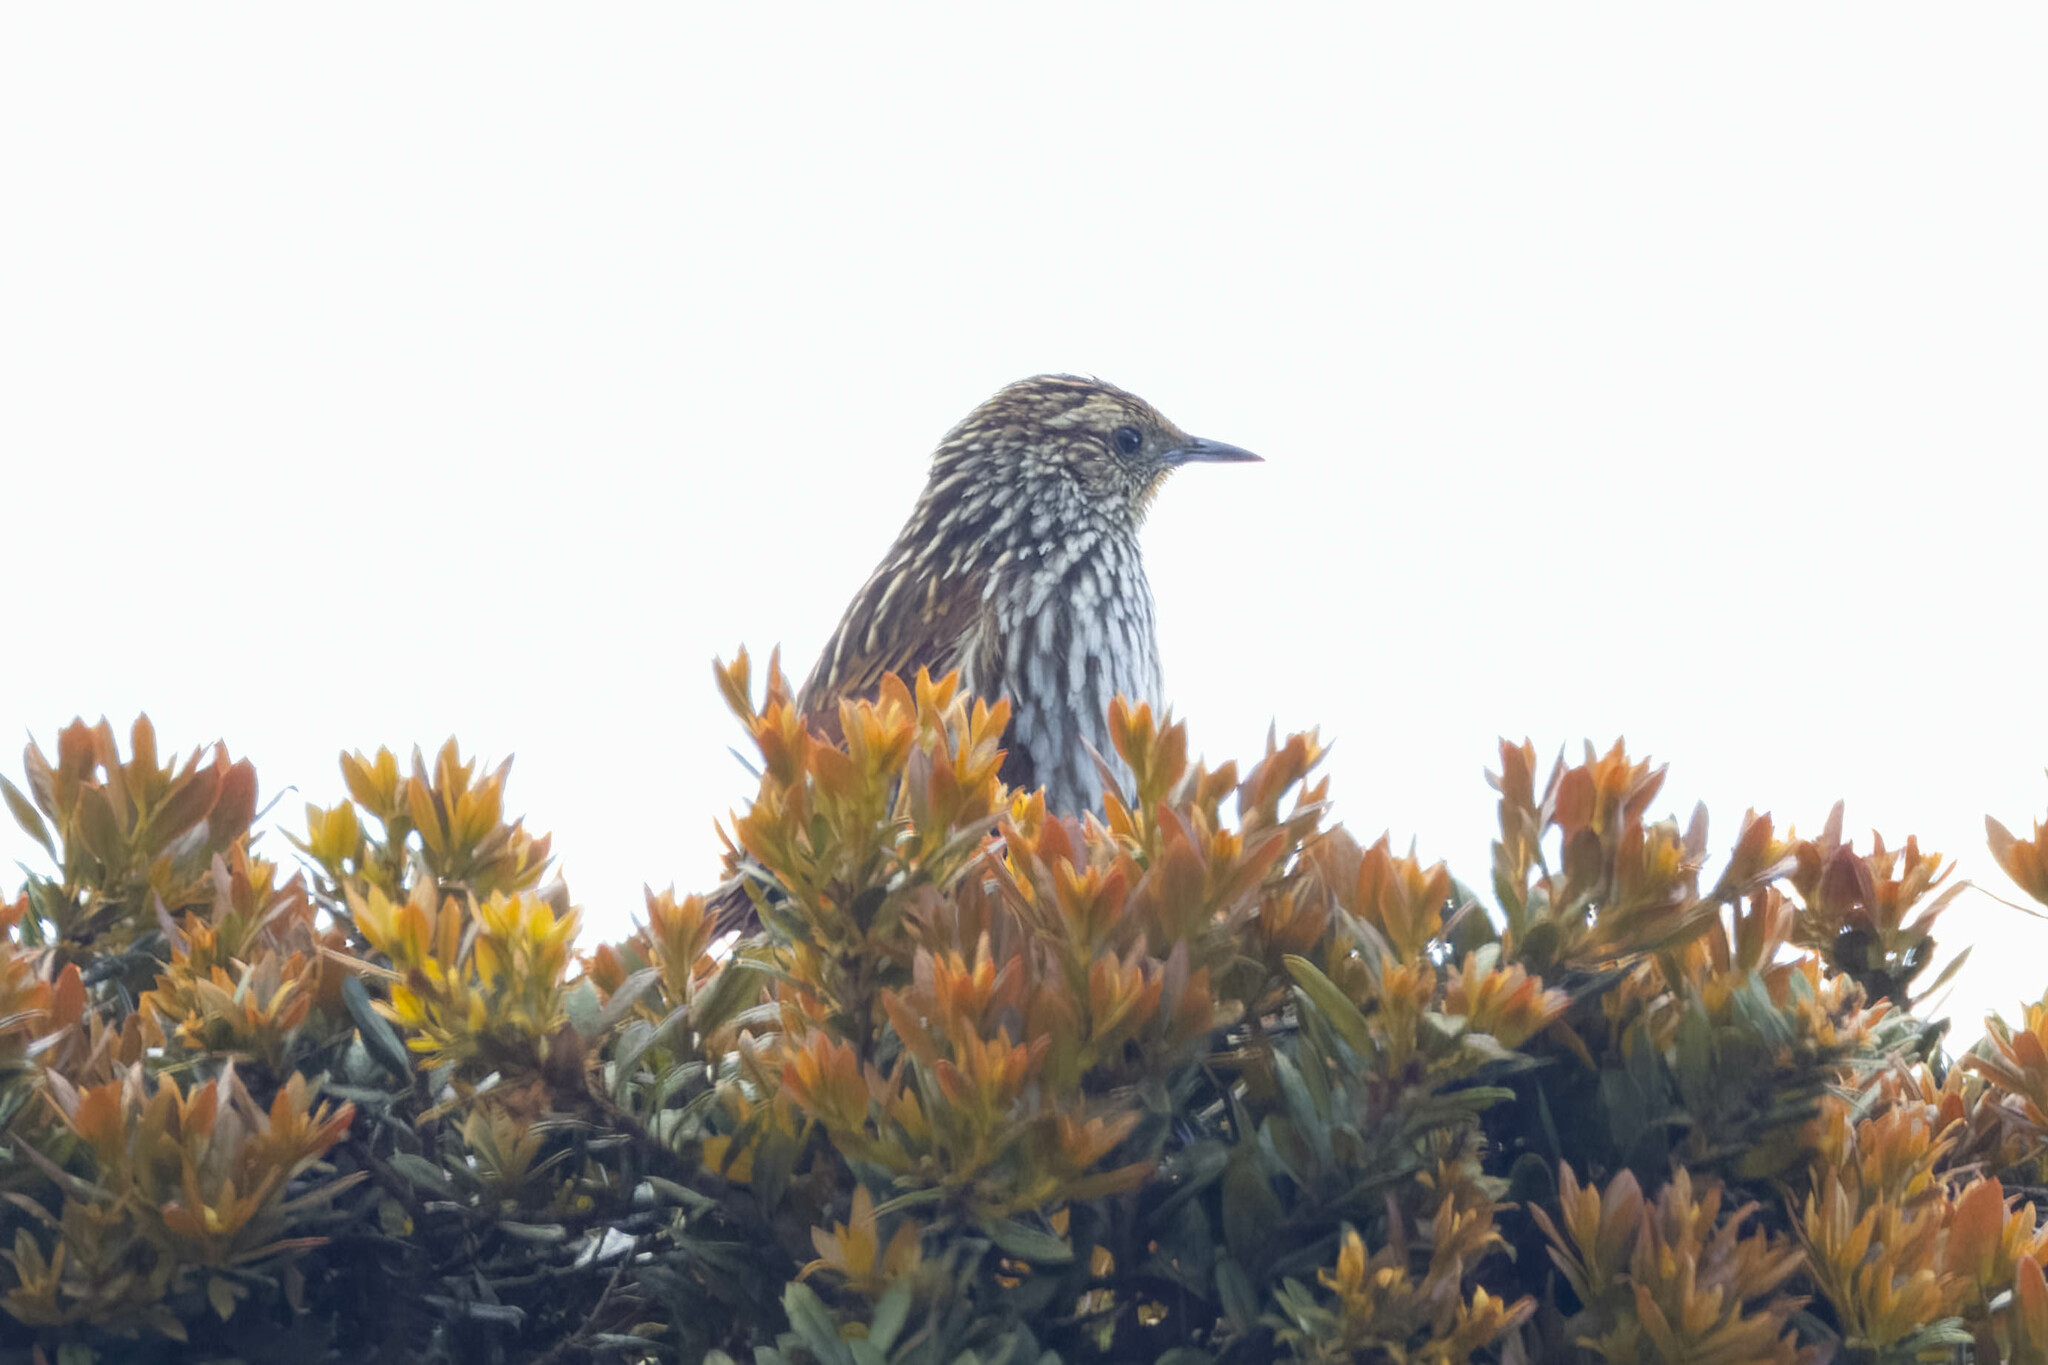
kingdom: Animalia
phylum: Chordata
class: Aves
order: Passeriformes
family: Furnariidae
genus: Asthenes
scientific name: Asthenes flammulata
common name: Many-striped canastero
